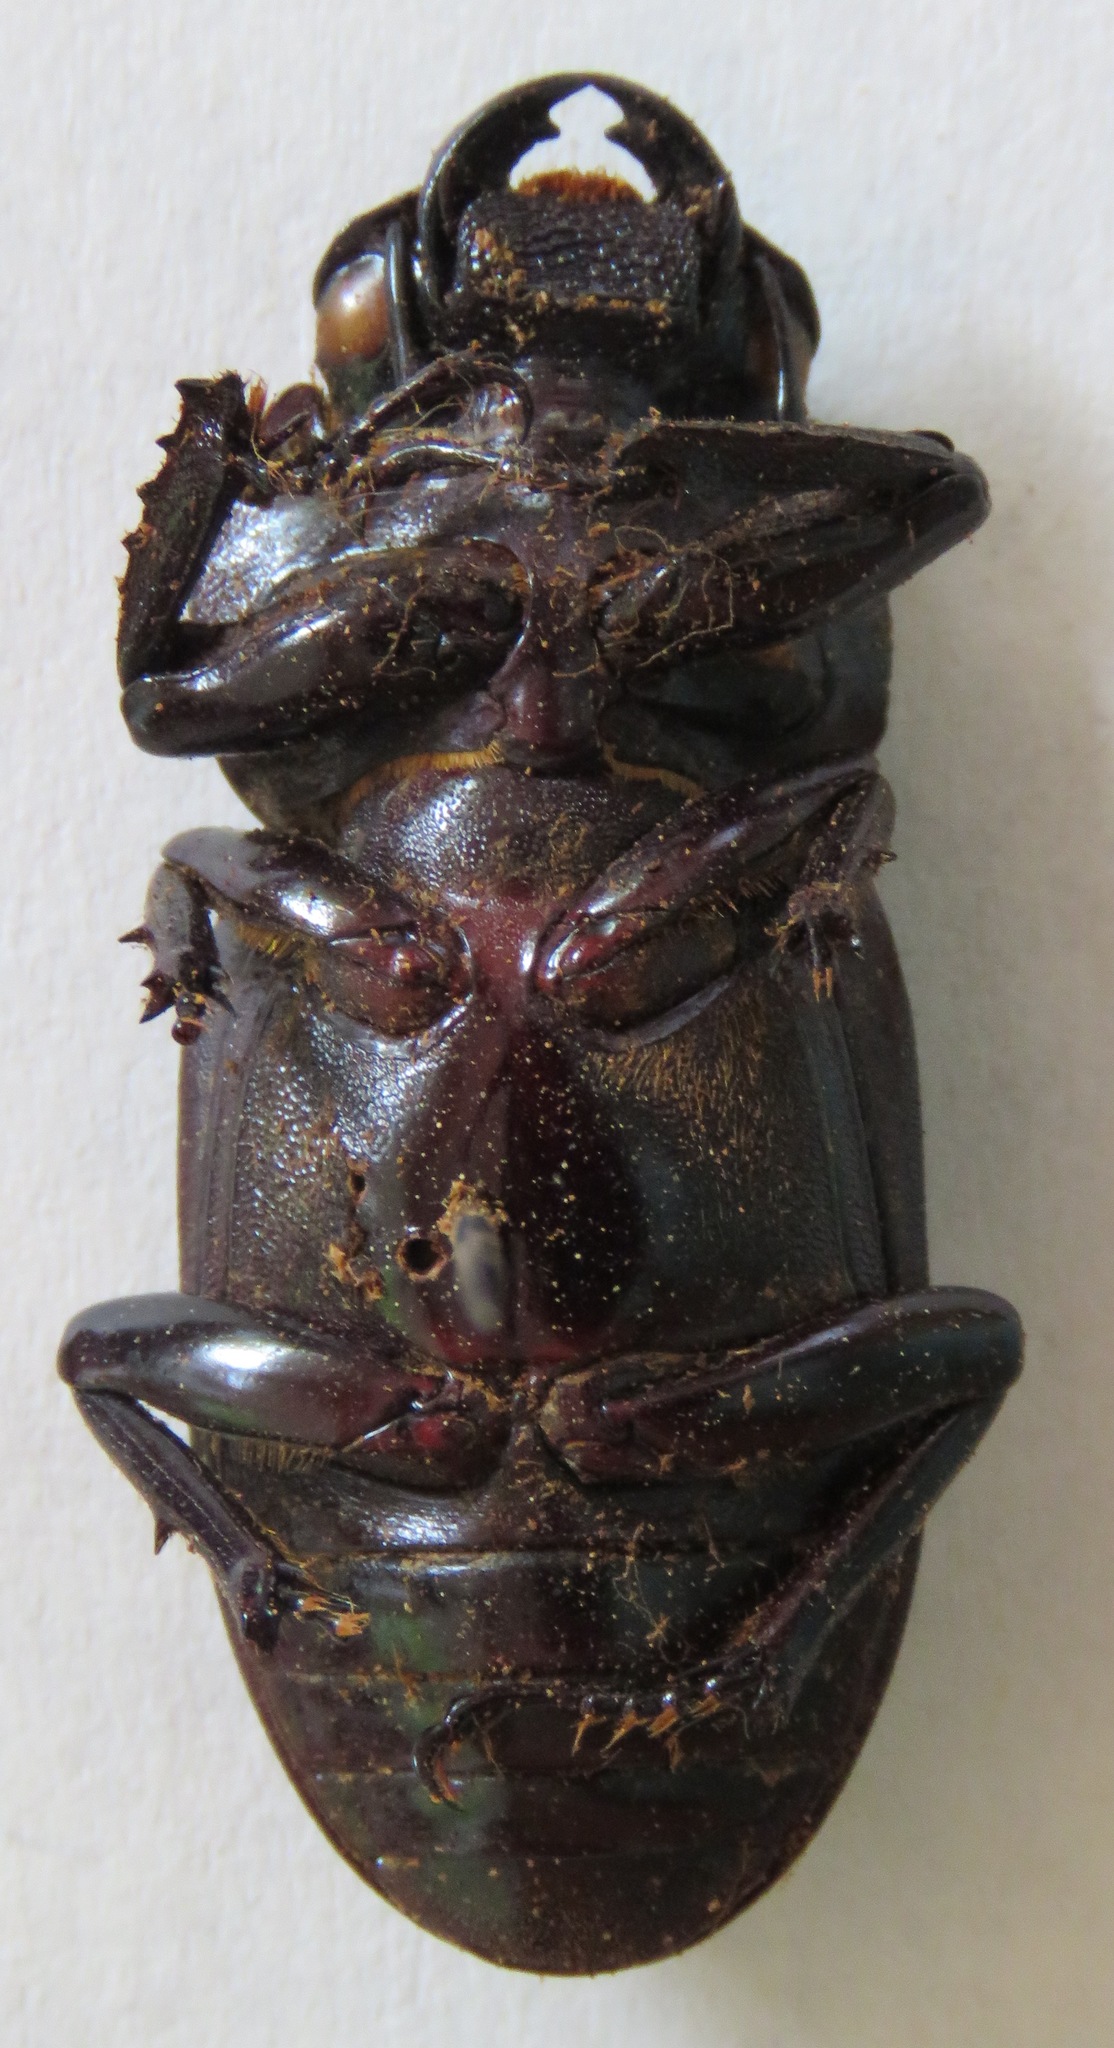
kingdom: Animalia
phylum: Arthropoda
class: Insecta
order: Coleoptera
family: Lucanidae
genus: Dorcus
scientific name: Dorcus antaeus
